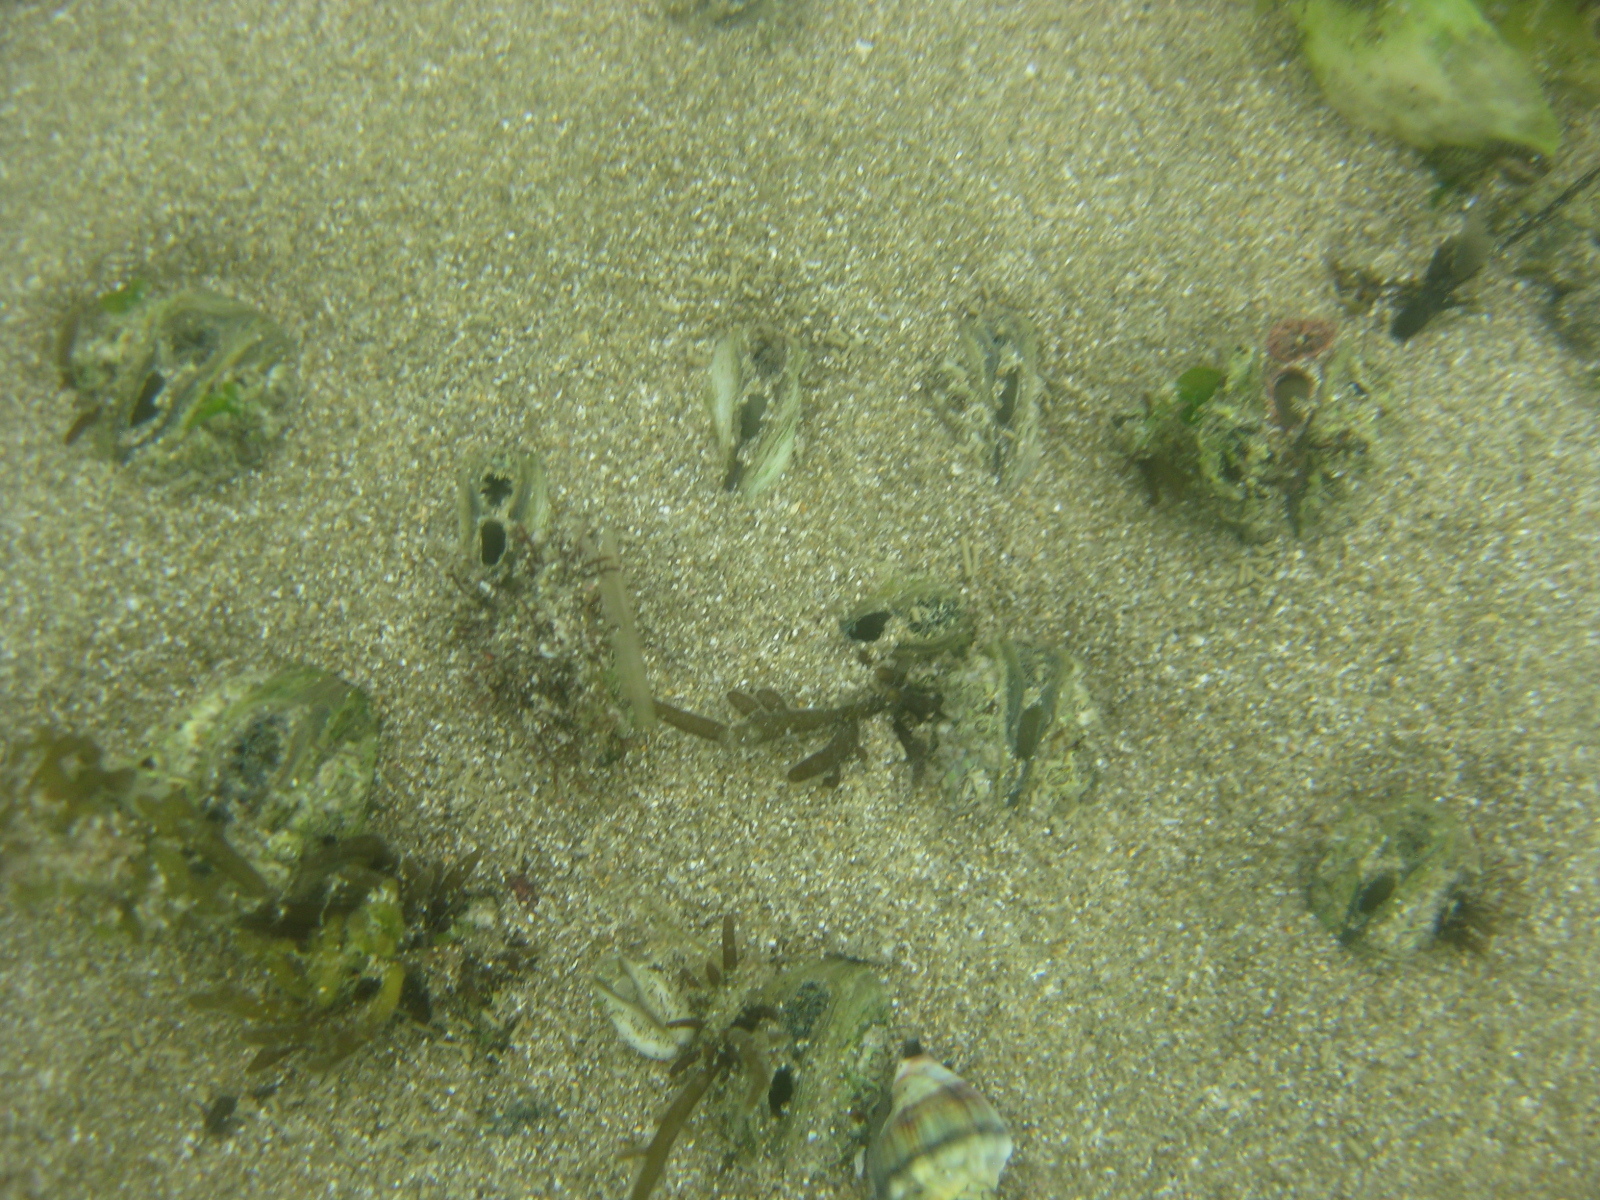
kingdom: Animalia
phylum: Mollusca
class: Bivalvia
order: Venerida
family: Mesodesmatidae
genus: Paphies
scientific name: Paphies australis
